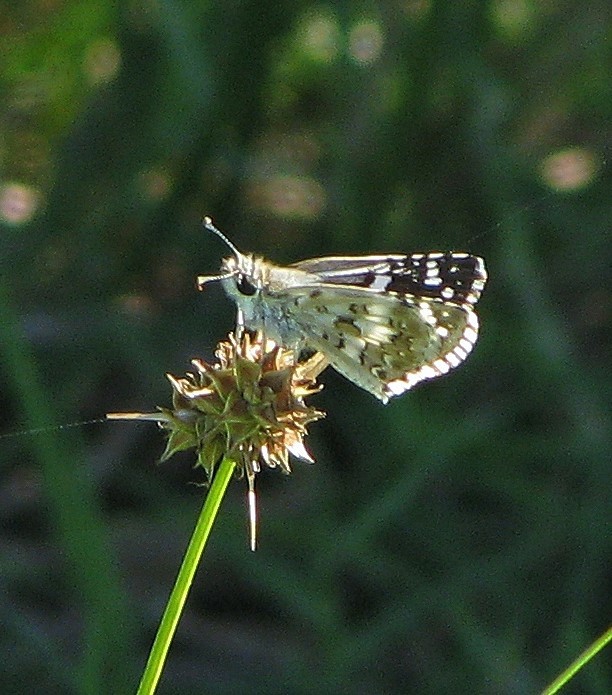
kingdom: Animalia
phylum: Arthropoda
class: Insecta
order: Lepidoptera
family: Hesperiidae
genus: Burnsius
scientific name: Burnsius orcynoides
